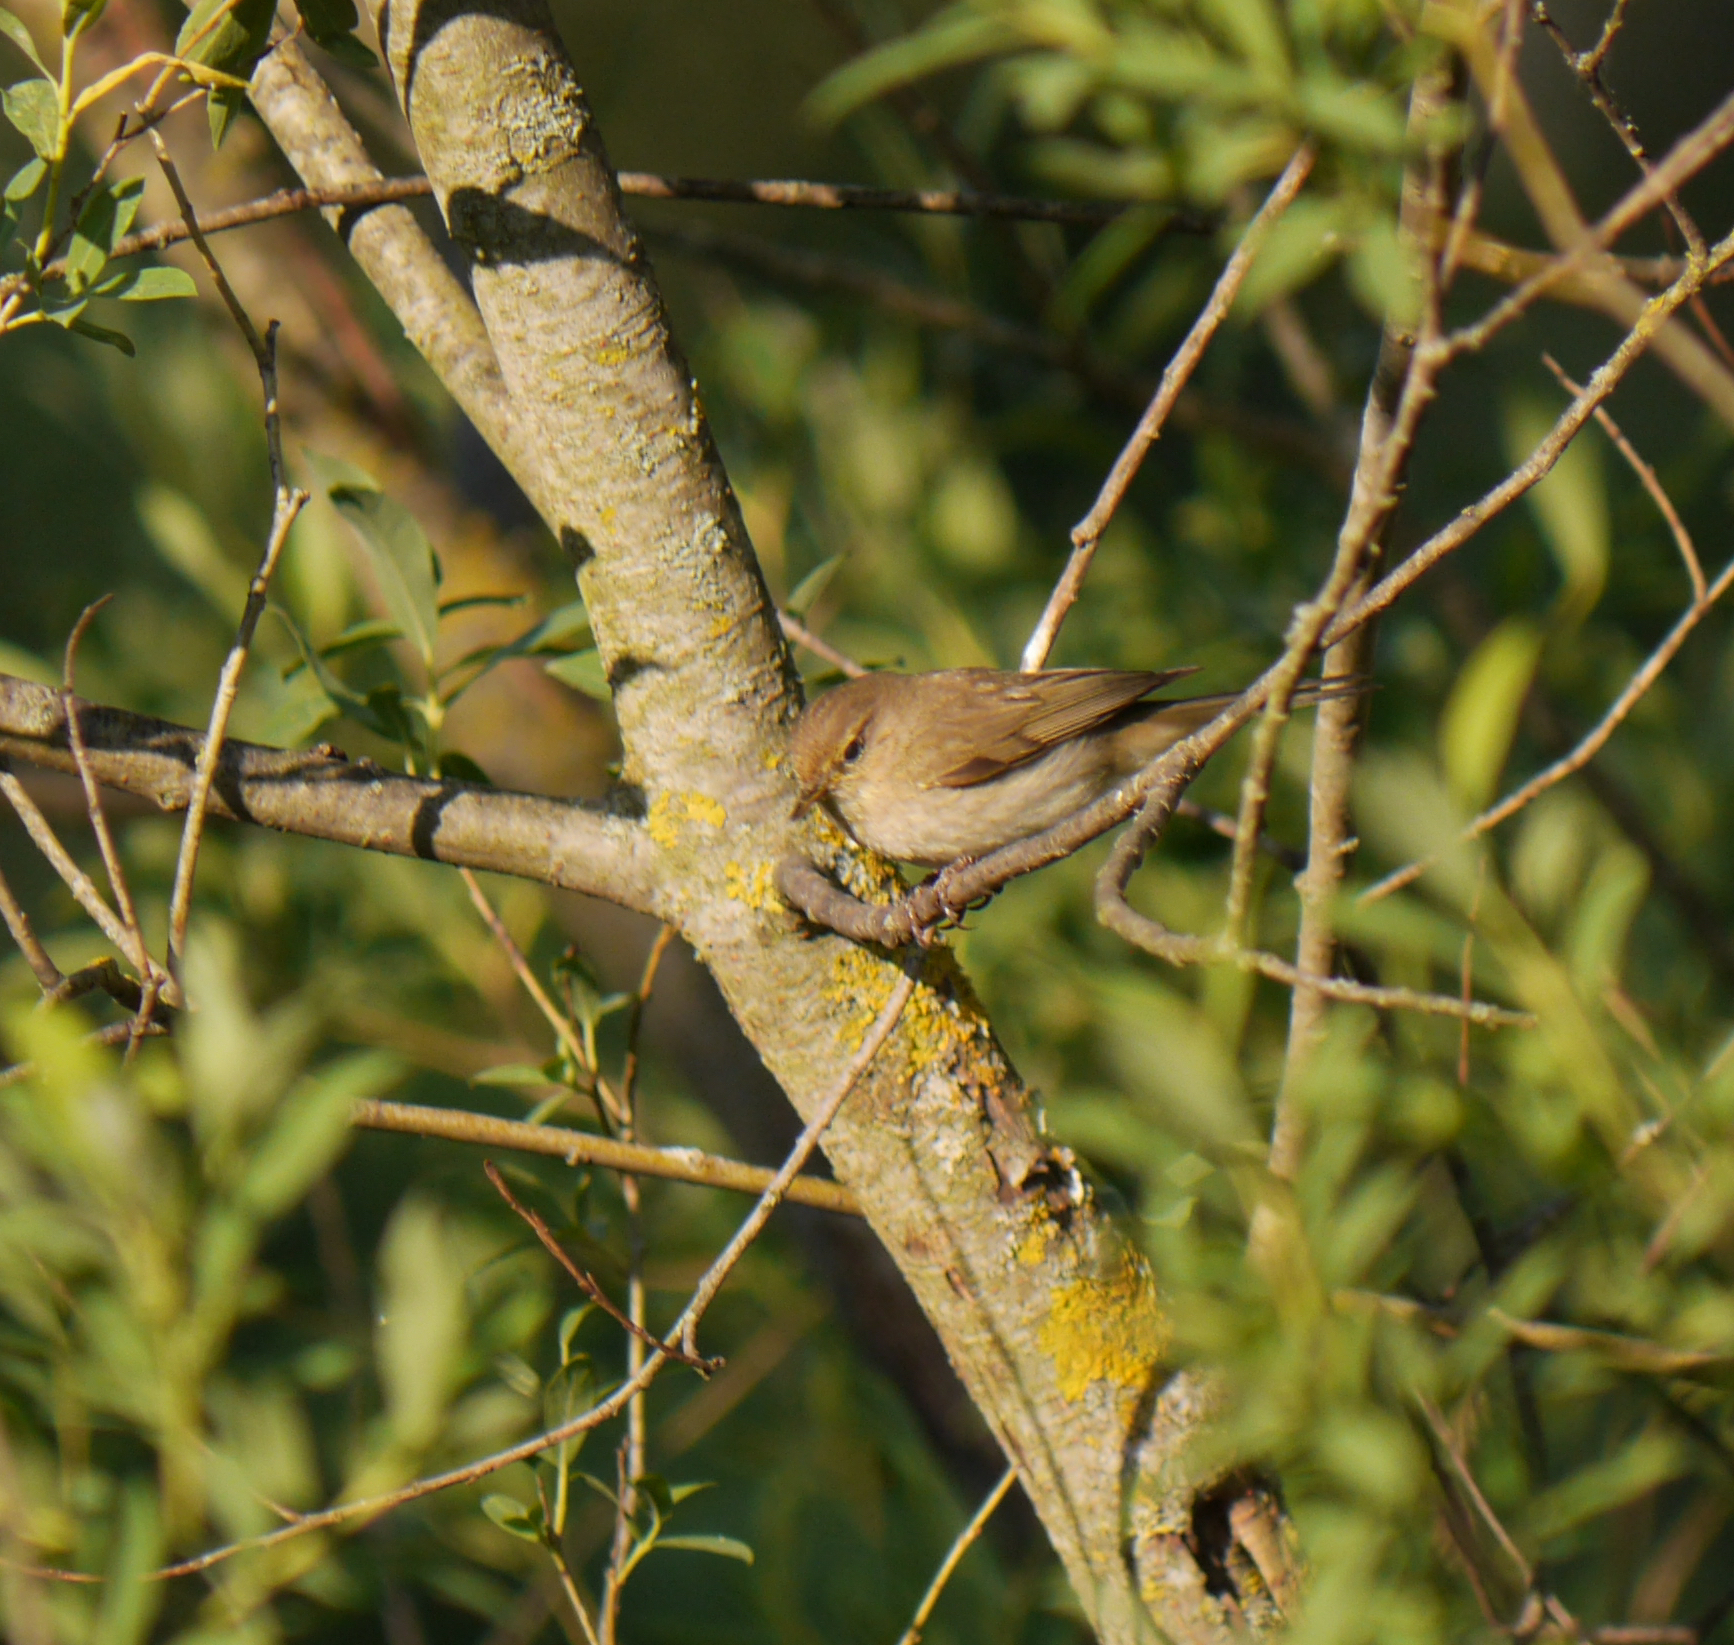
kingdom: Animalia
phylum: Chordata
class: Aves
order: Passeriformes
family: Phylloscopidae
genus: Phylloscopus
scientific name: Phylloscopus collybita
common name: Common chiffchaff
